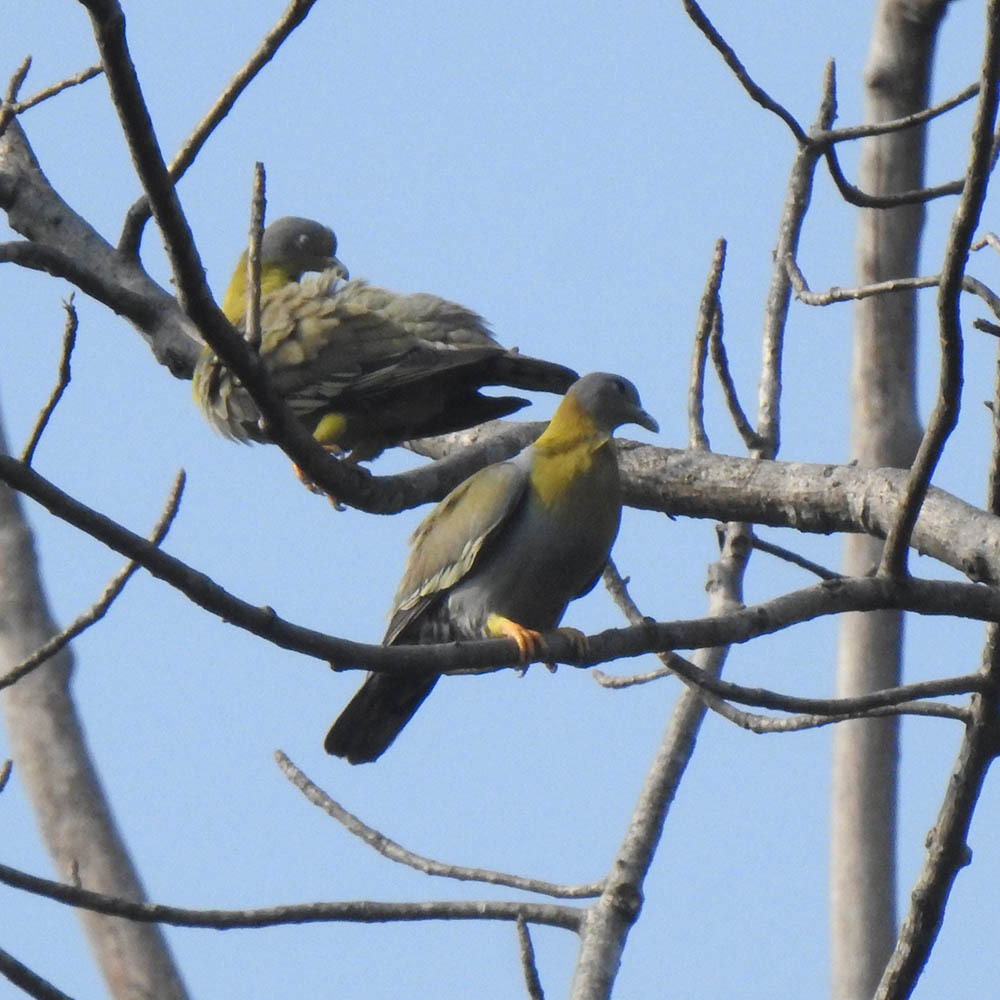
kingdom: Animalia
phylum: Chordata
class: Aves
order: Columbiformes
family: Columbidae
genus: Treron
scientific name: Treron phoenicopterus
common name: Yellow-footed green pigeon
